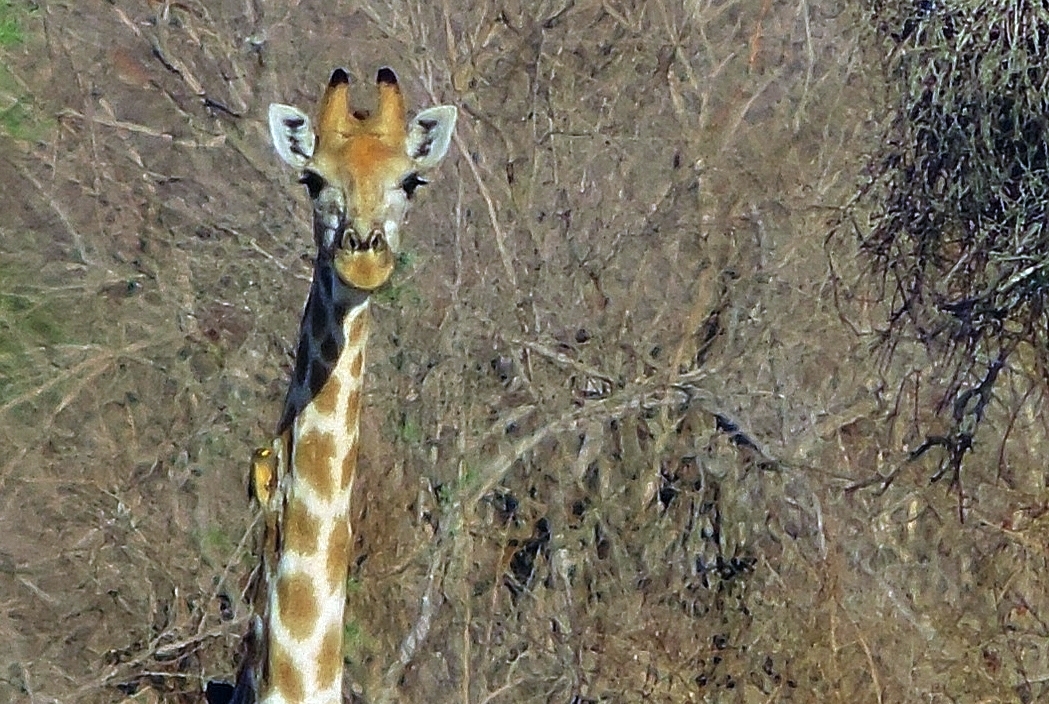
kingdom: Animalia
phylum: Chordata
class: Aves
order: Passeriformes
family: Buphagidae
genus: Buphagus
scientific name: Buphagus africanus
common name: Yellow-billed oxpecker
